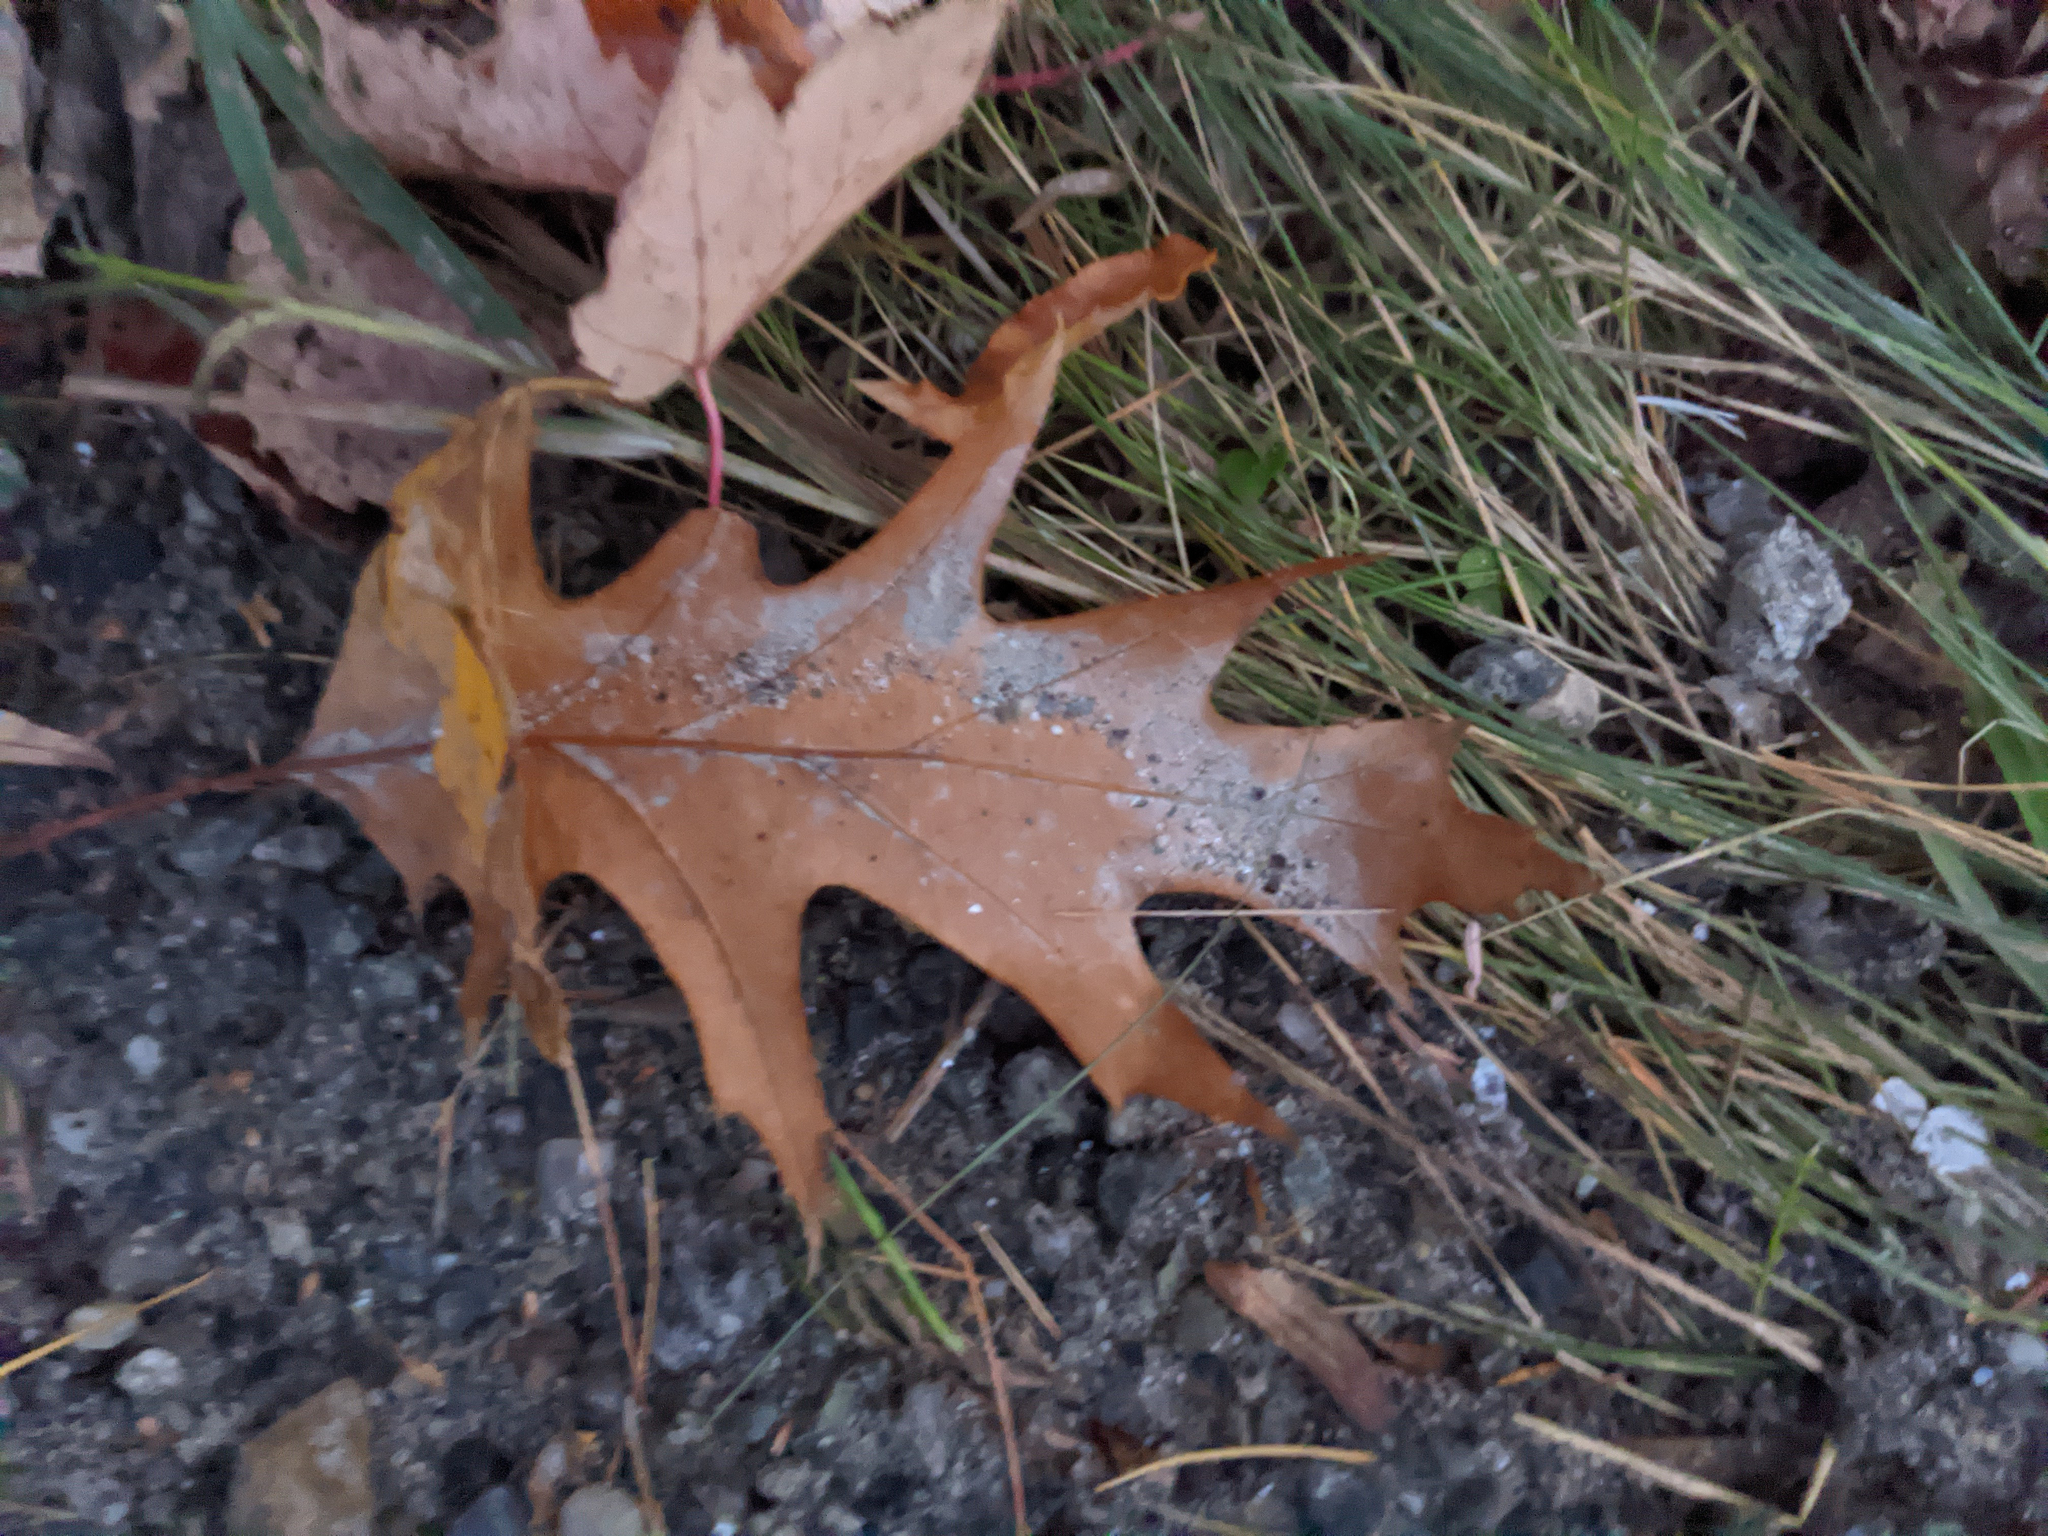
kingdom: Plantae
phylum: Tracheophyta
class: Magnoliopsida
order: Fagales
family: Fagaceae
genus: Quercus
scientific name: Quercus rubra
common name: Red oak
